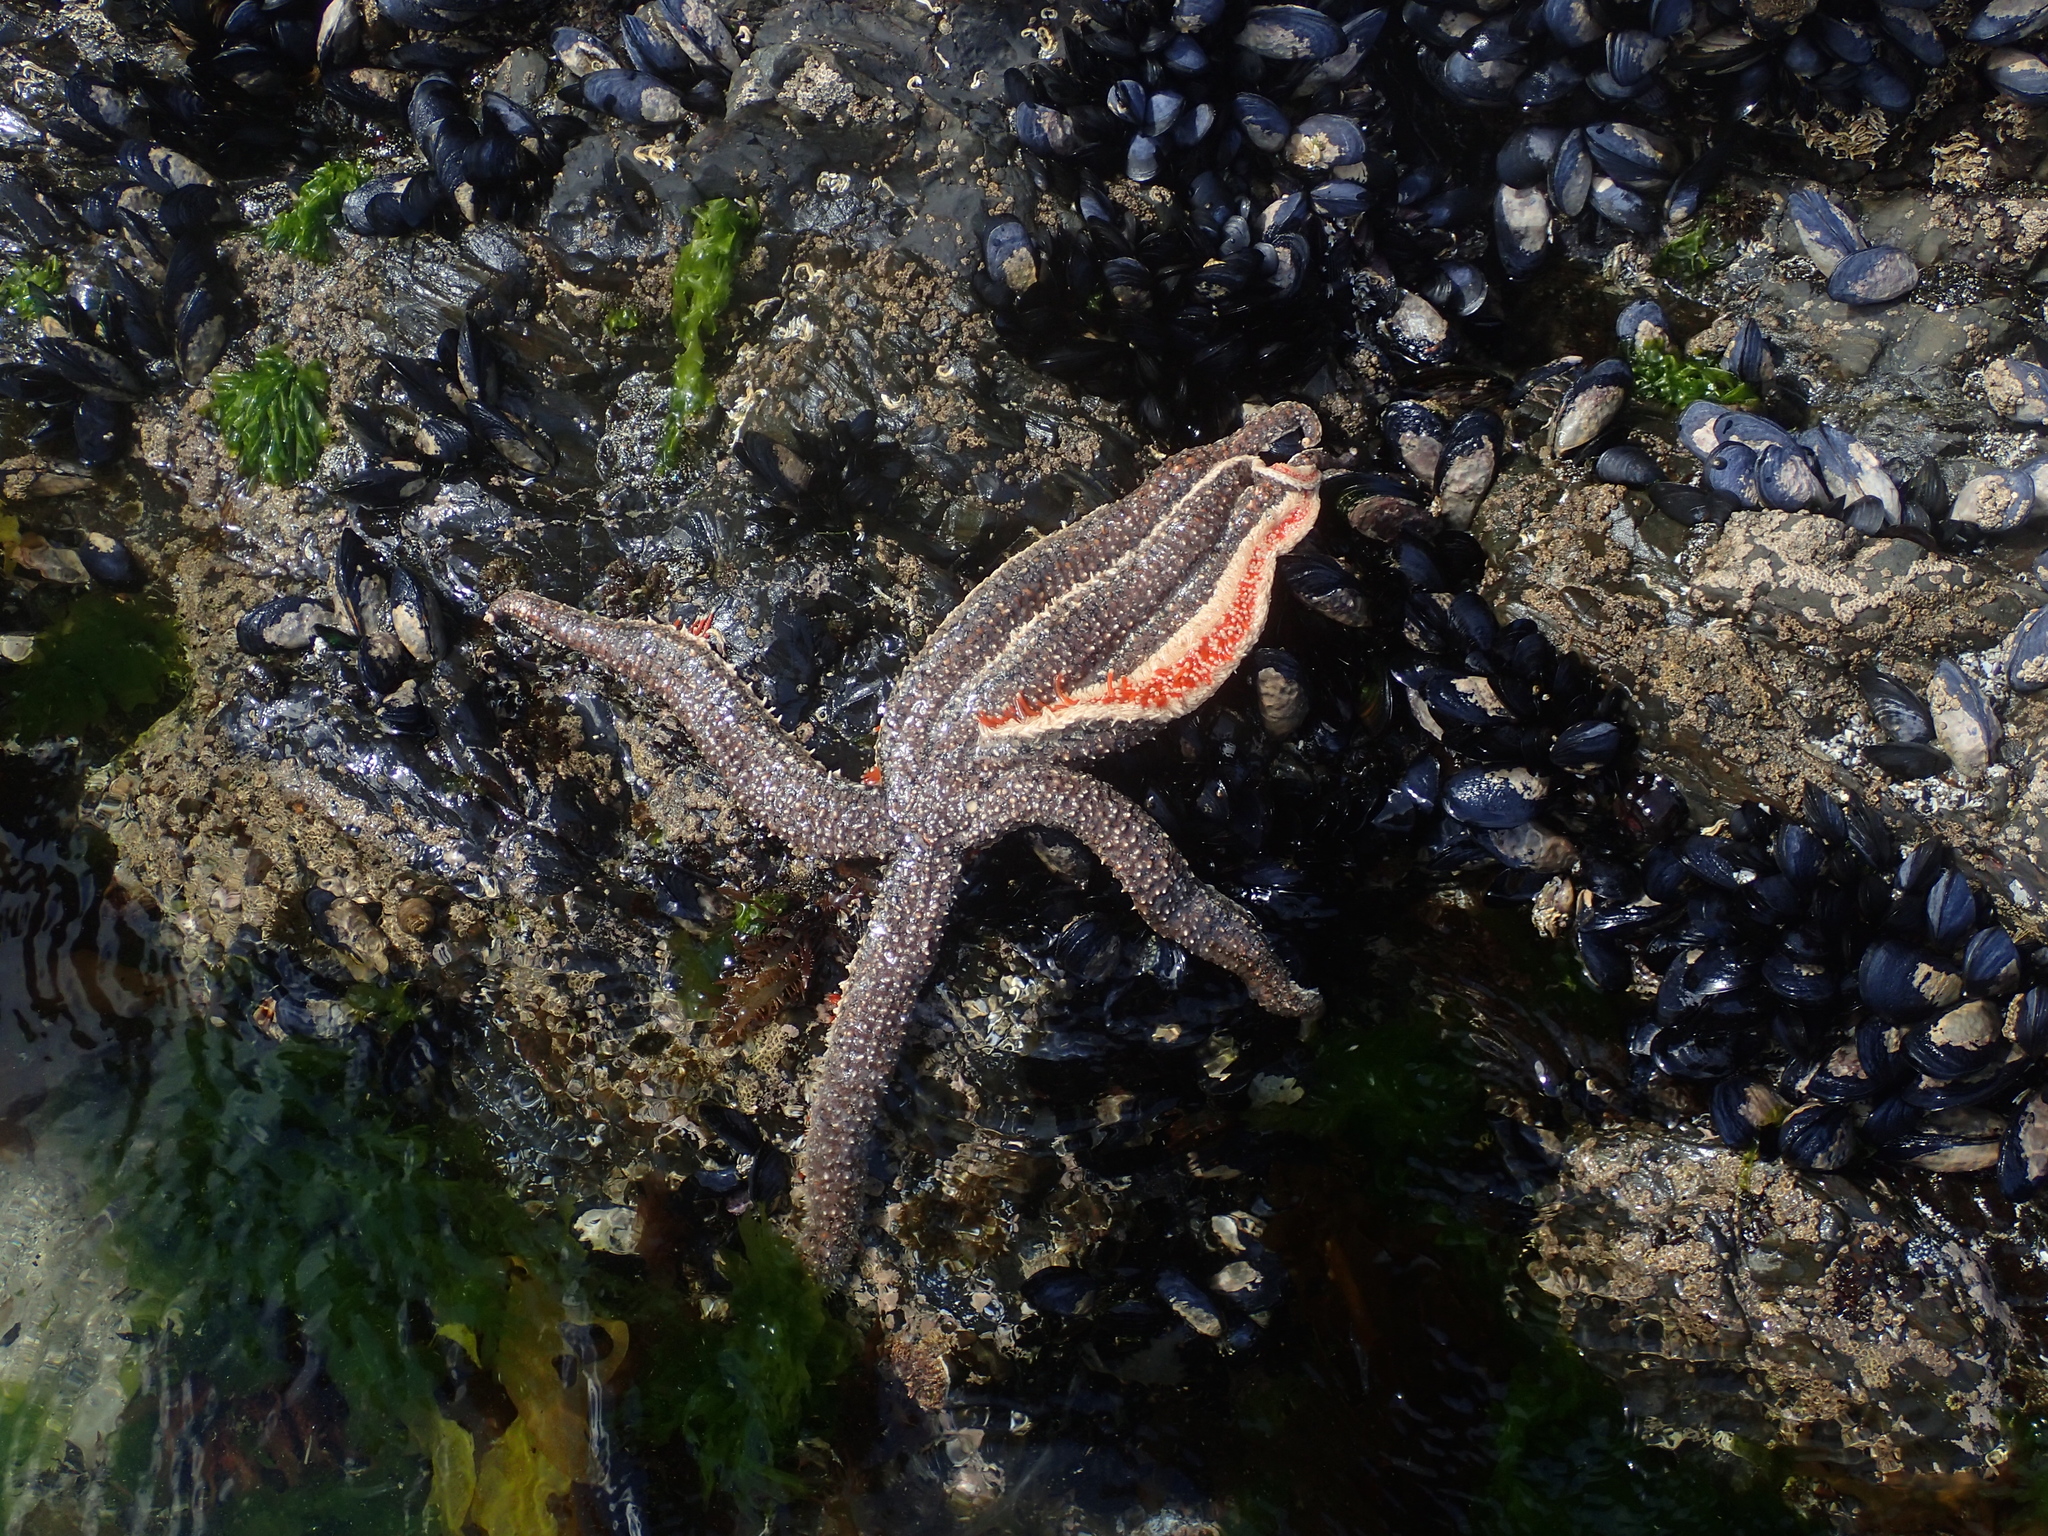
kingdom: Animalia
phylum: Echinodermata
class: Asteroidea
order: Forcipulatida
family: Asteriidae
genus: Astrostole
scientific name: Astrostole scabra
